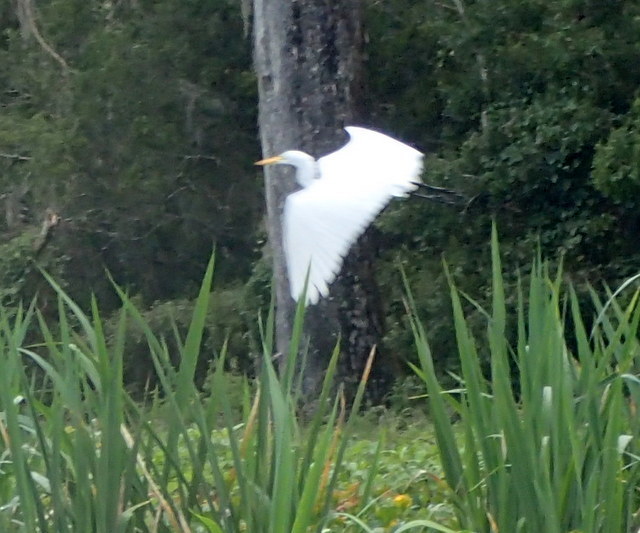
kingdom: Animalia
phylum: Chordata
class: Aves
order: Pelecaniformes
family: Ardeidae
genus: Ardea
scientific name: Ardea alba
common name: Great egret
